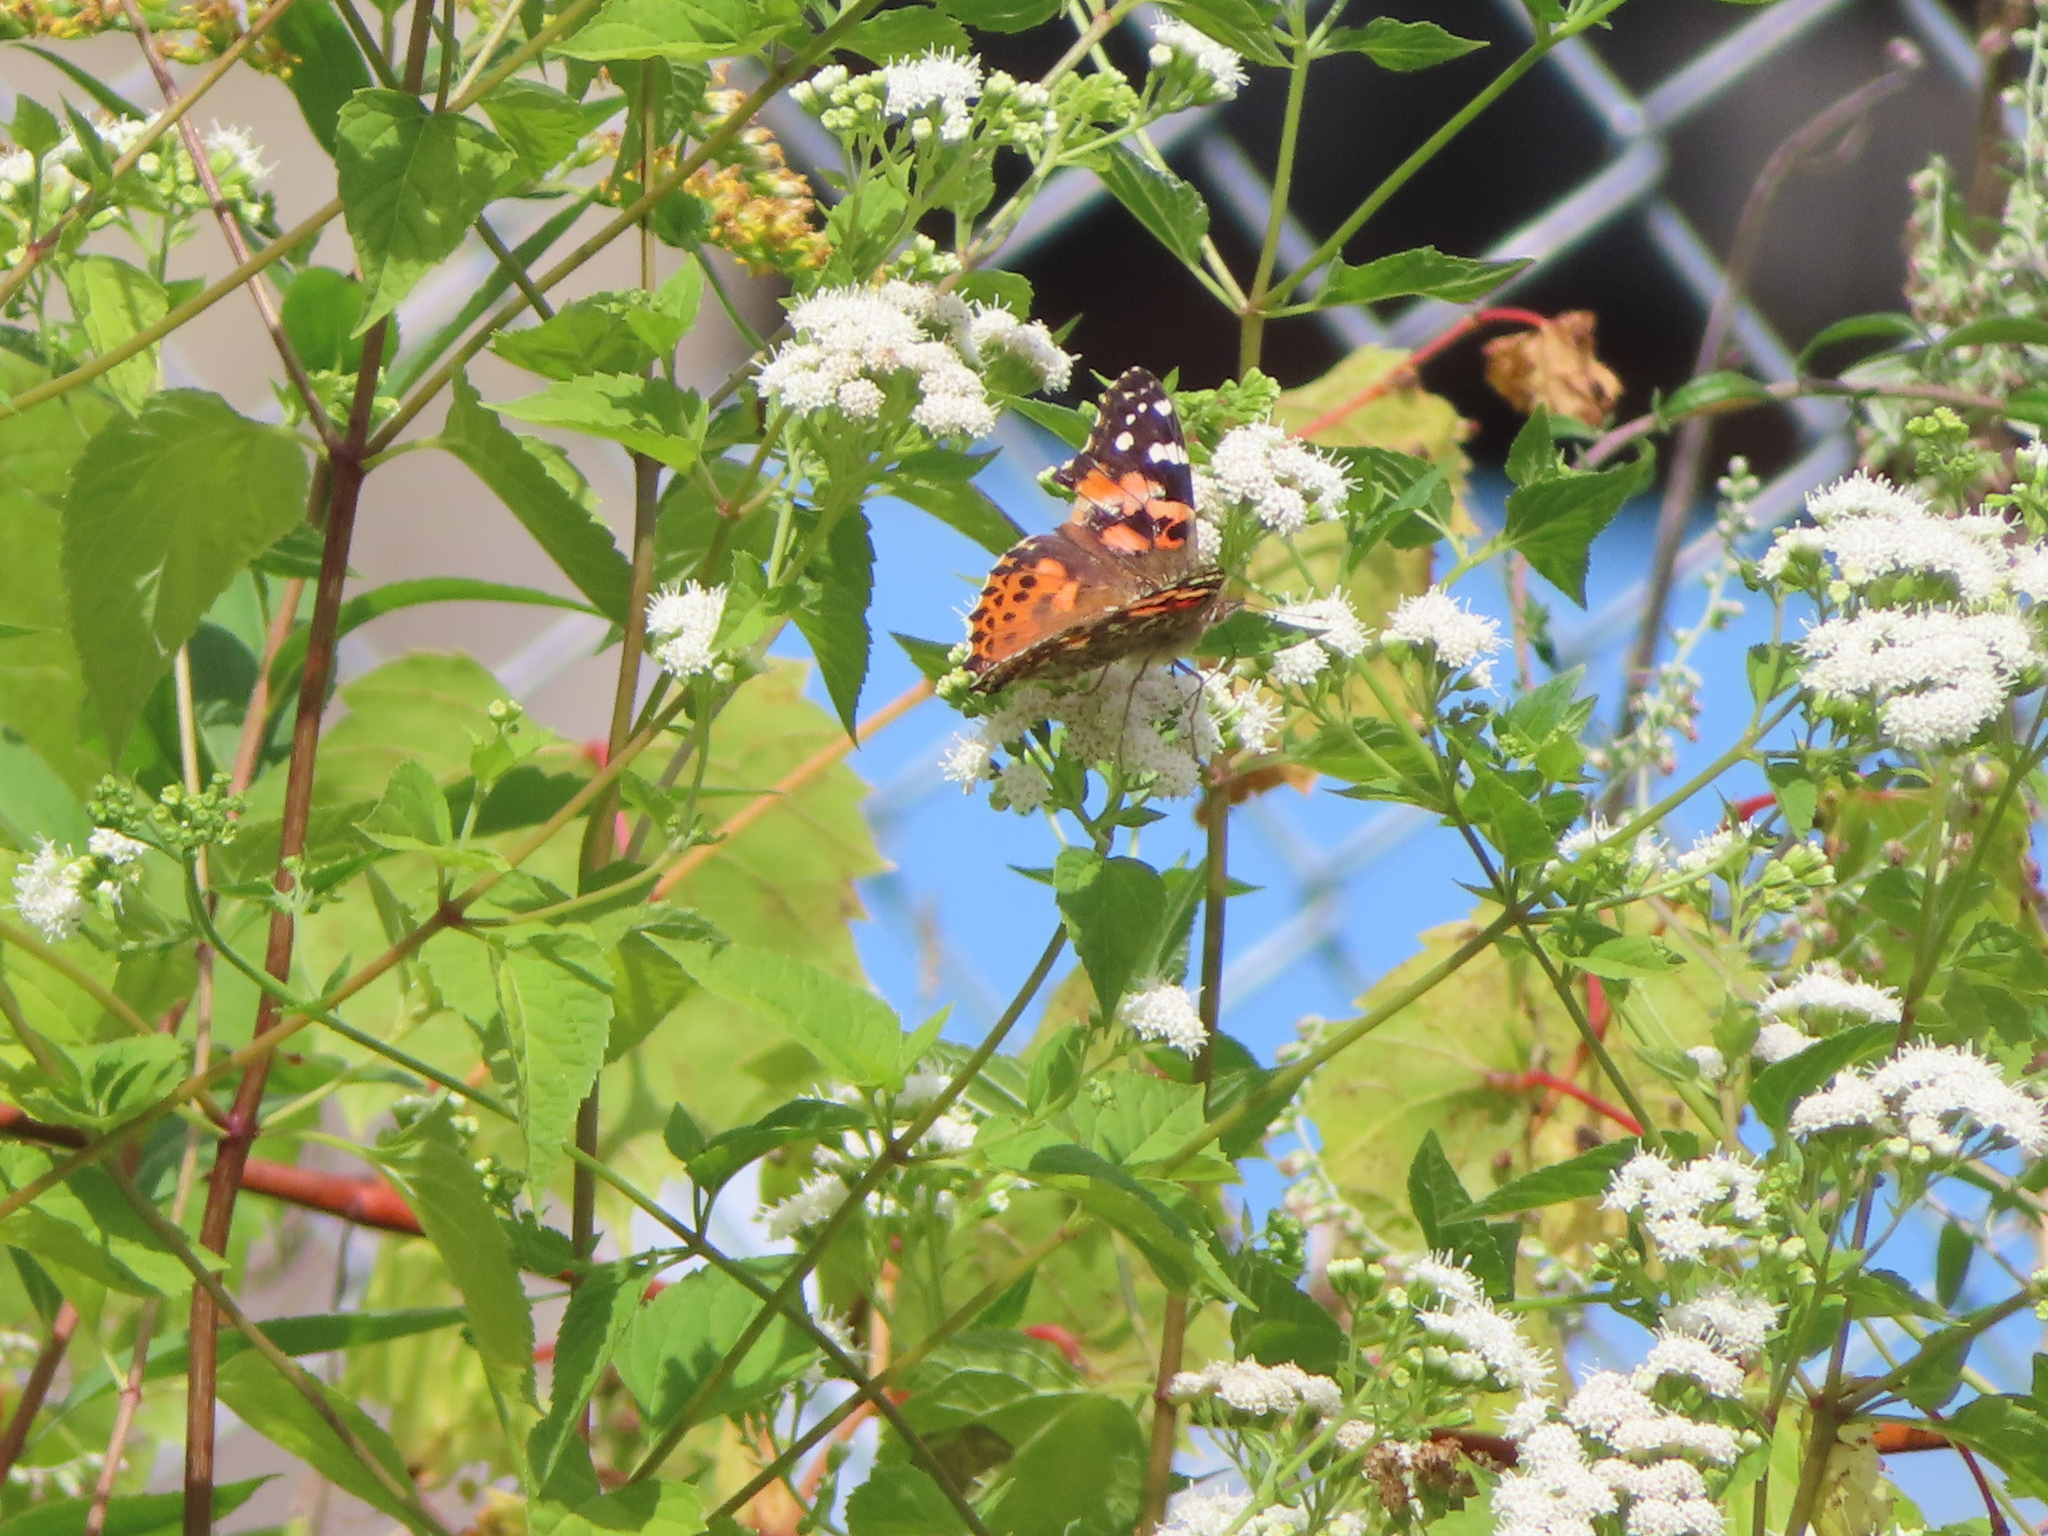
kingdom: Plantae
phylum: Tracheophyta
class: Magnoliopsida
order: Asterales
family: Asteraceae
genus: Ageratina
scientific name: Ageratina altissima
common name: White snakeroot
